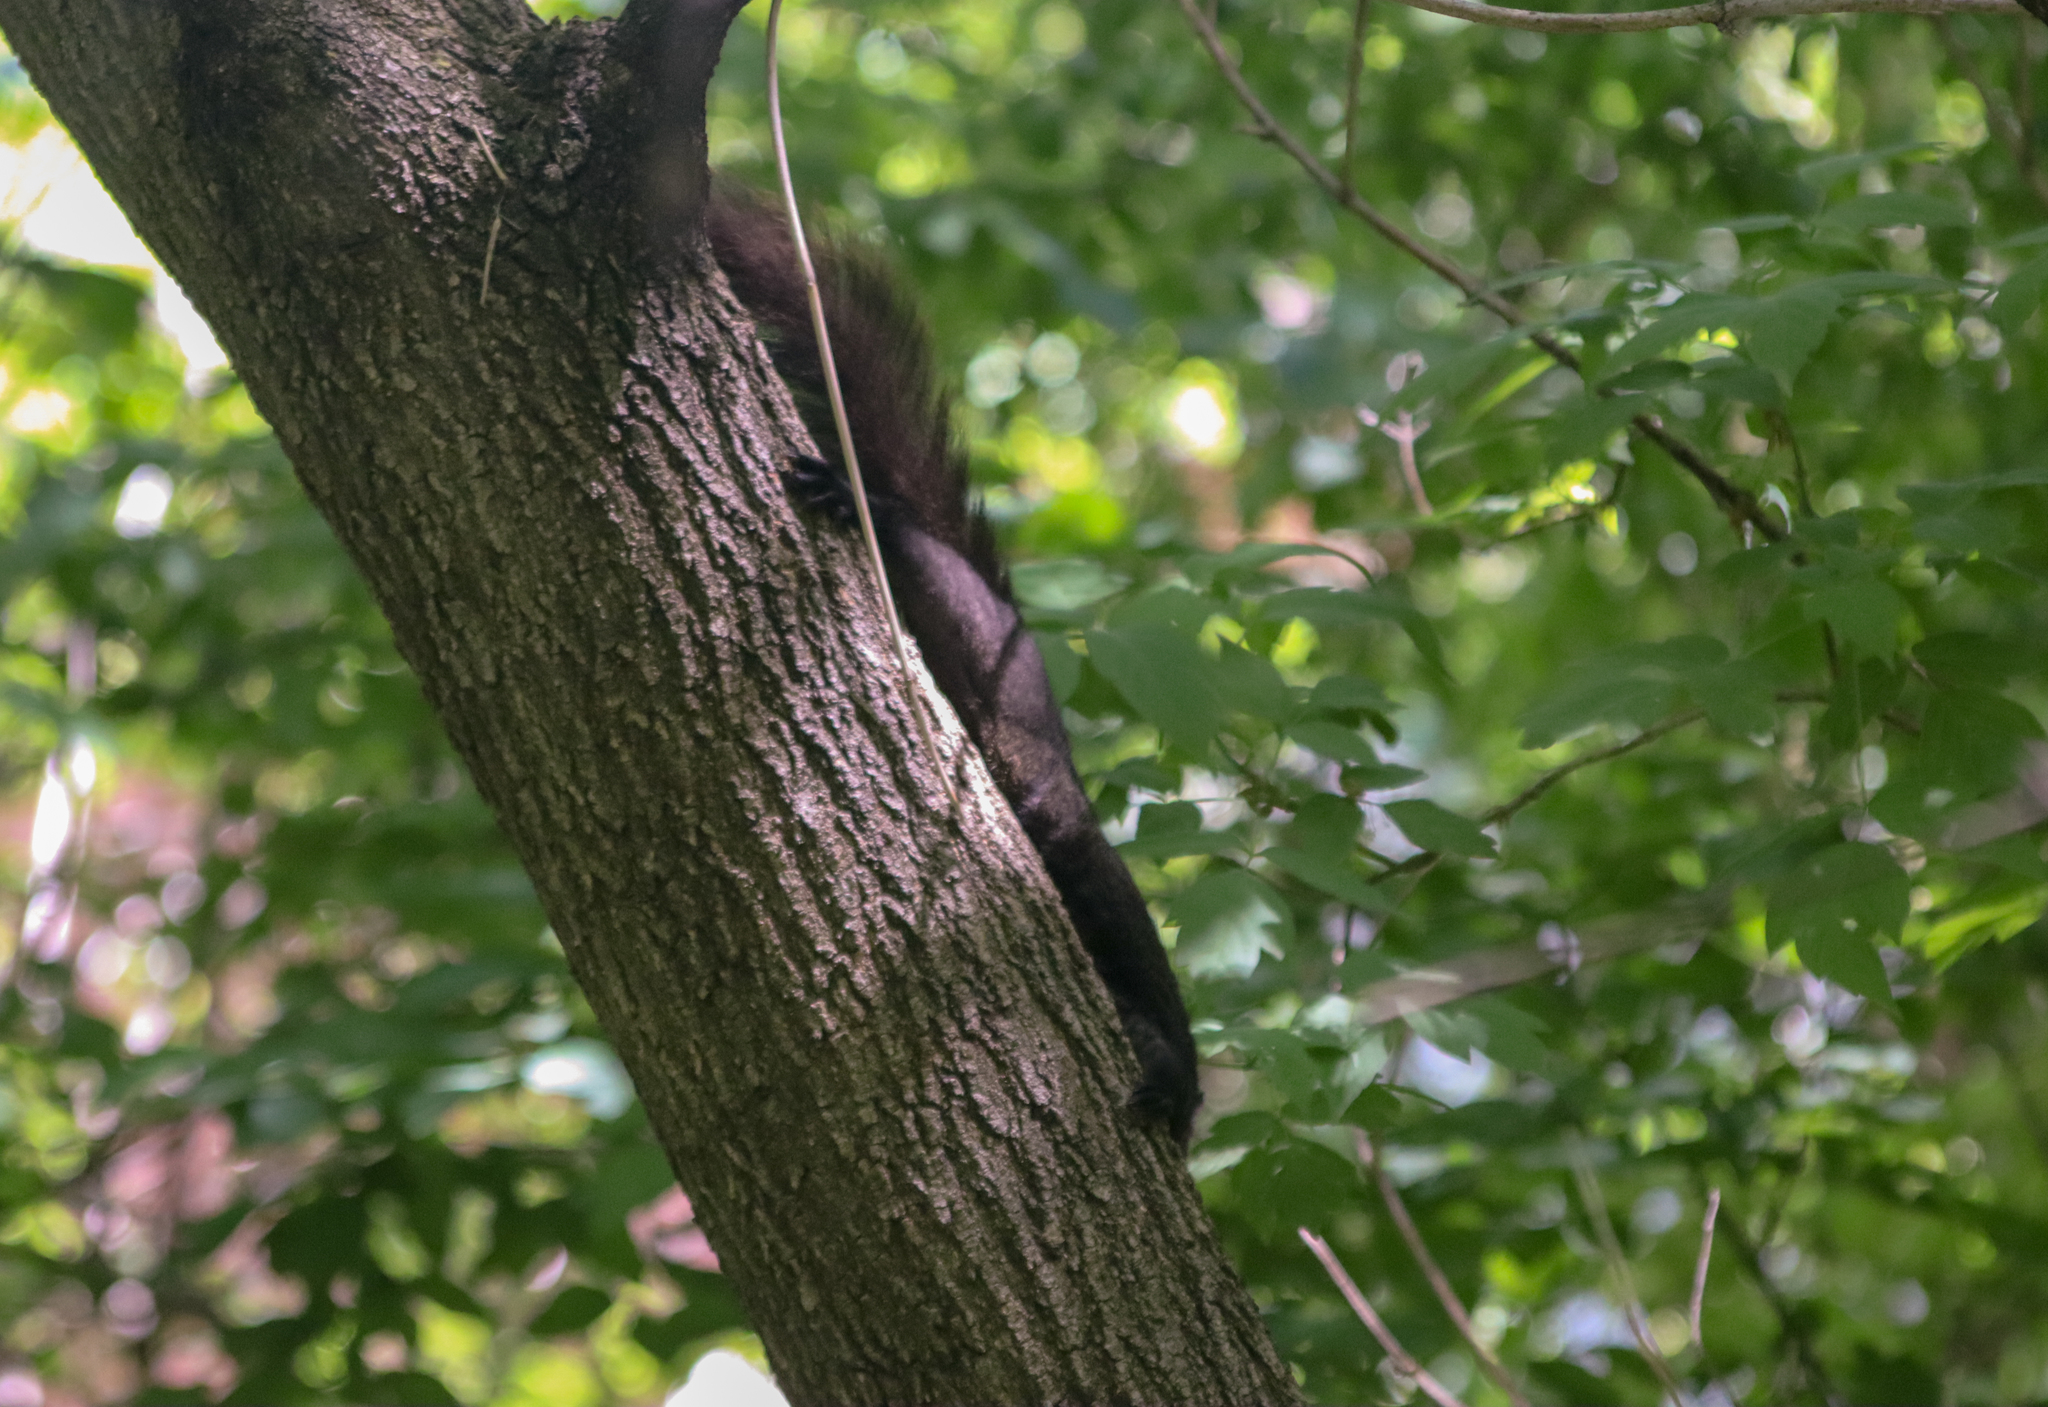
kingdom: Animalia
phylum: Chordata
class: Mammalia
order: Rodentia
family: Sciuridae
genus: Sciurus
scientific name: Sciurus carolinensis
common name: Eastern gray squirrel
